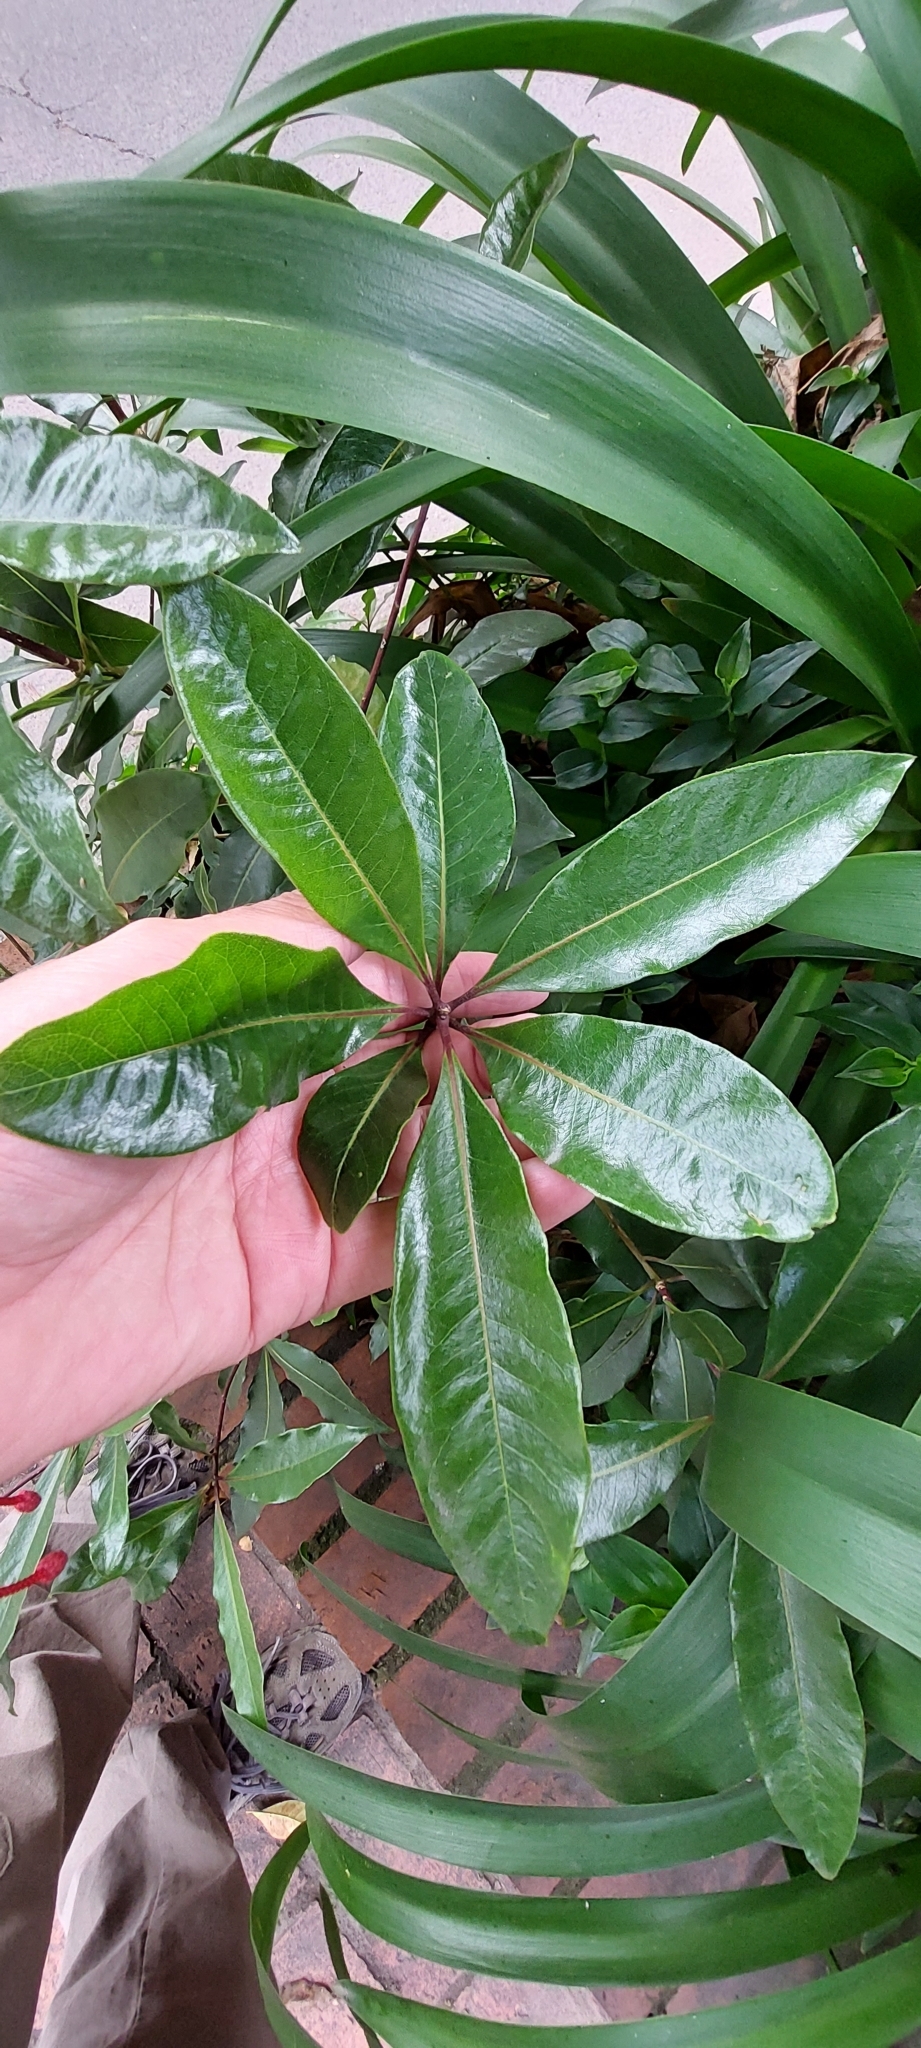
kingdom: Plantae
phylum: Tracheophyta
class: Magnoliopsida
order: Apiales
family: Pittosporaceae
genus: Pittosporum
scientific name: Pittosporum undulatum
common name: Australian cheesewood
